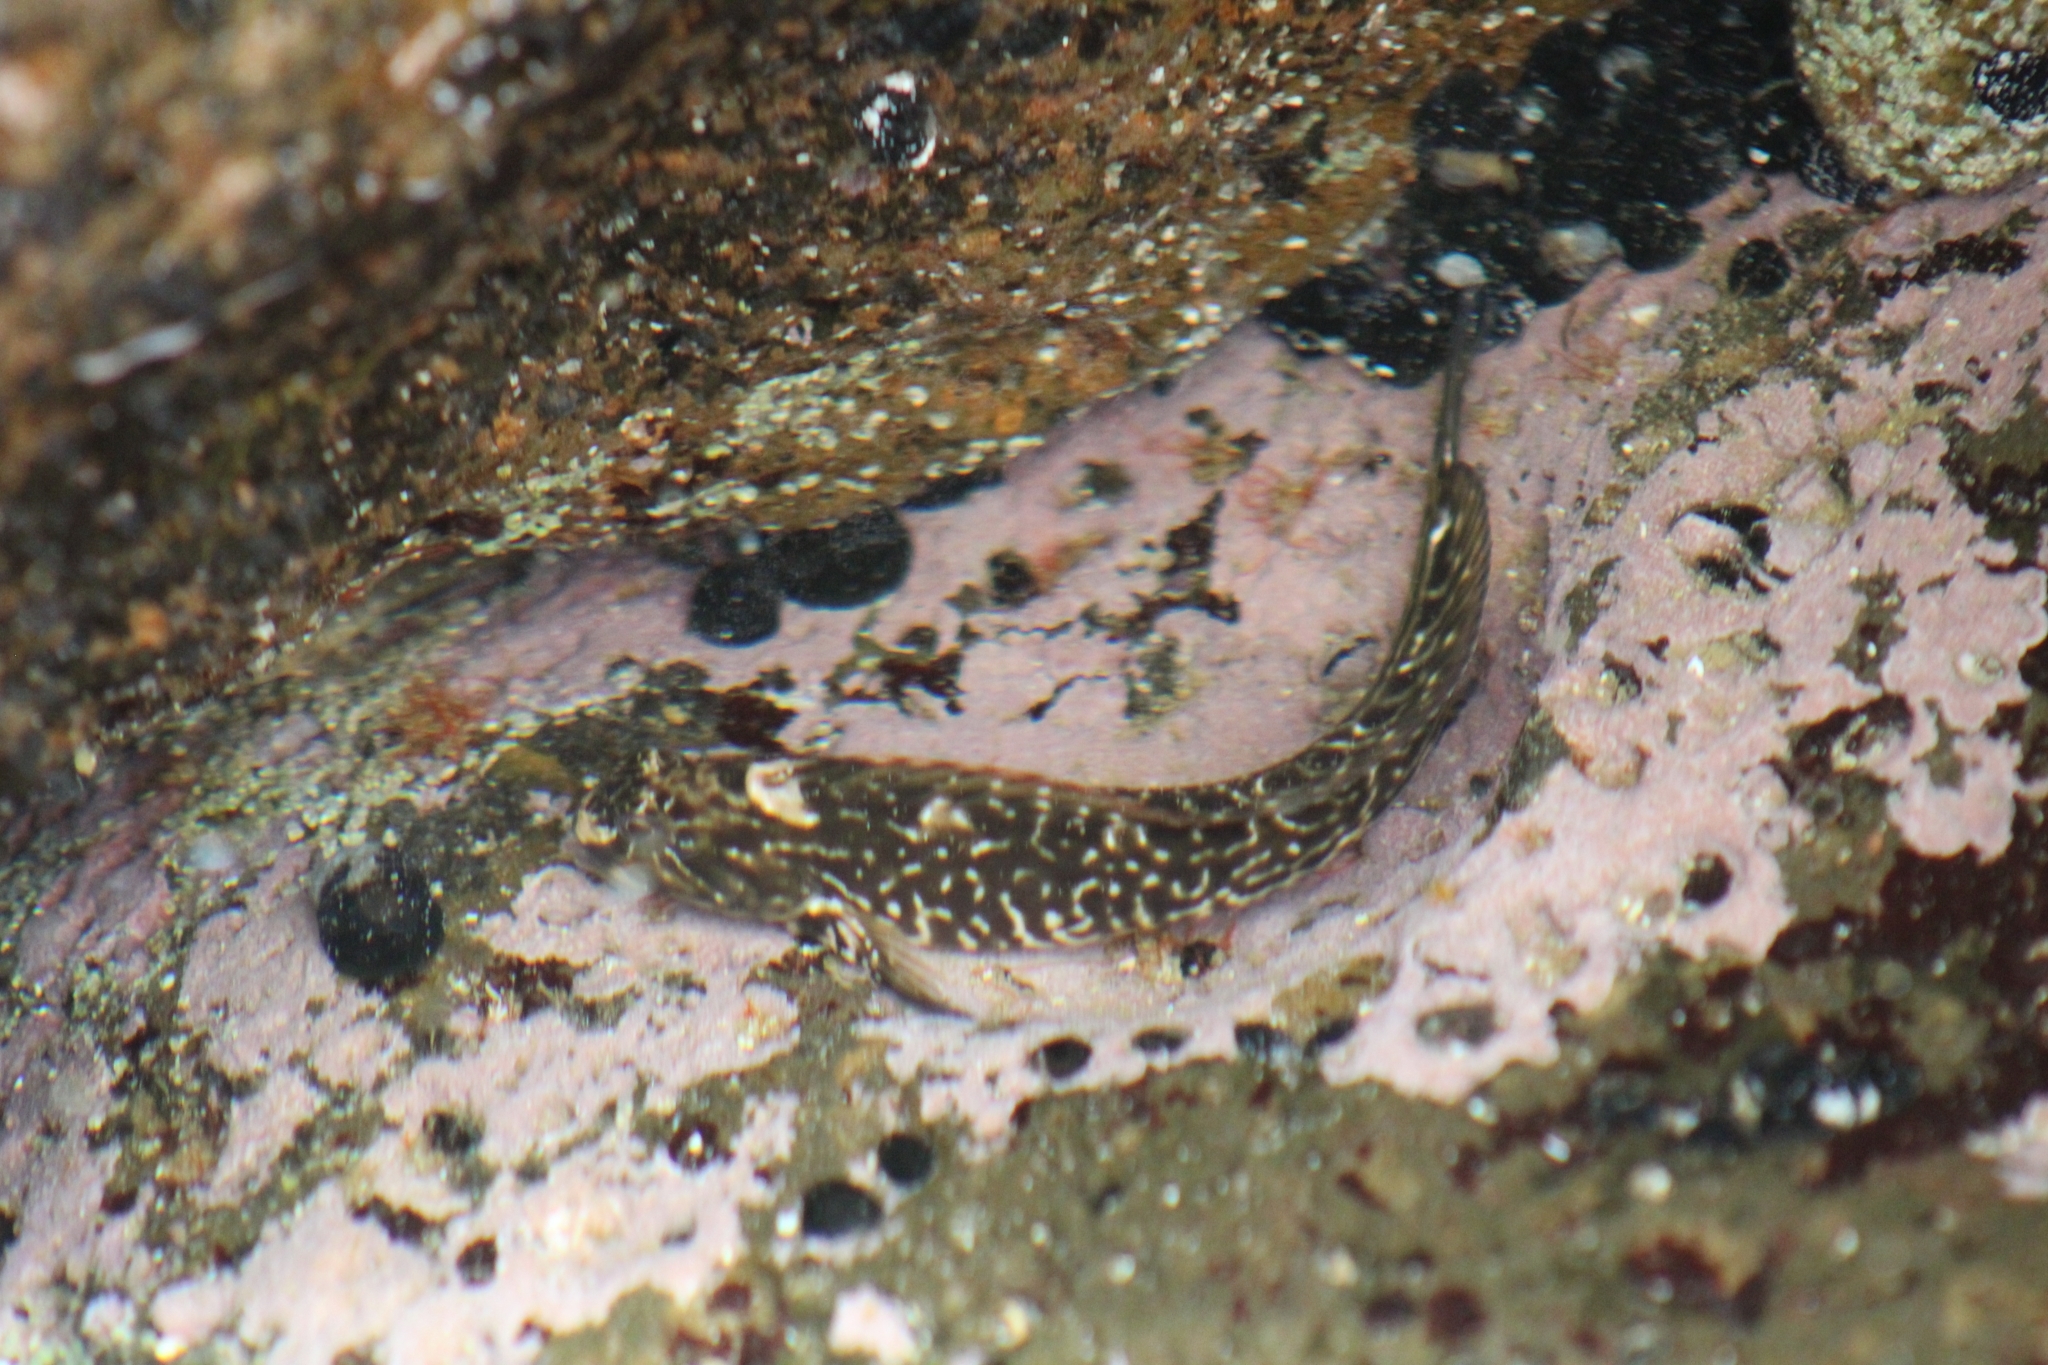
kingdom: Animalia
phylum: Chordata
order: Perciformes
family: Blenniidae
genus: Parablennius
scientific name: Parablennius parvicornis
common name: Rock-pool blenny
